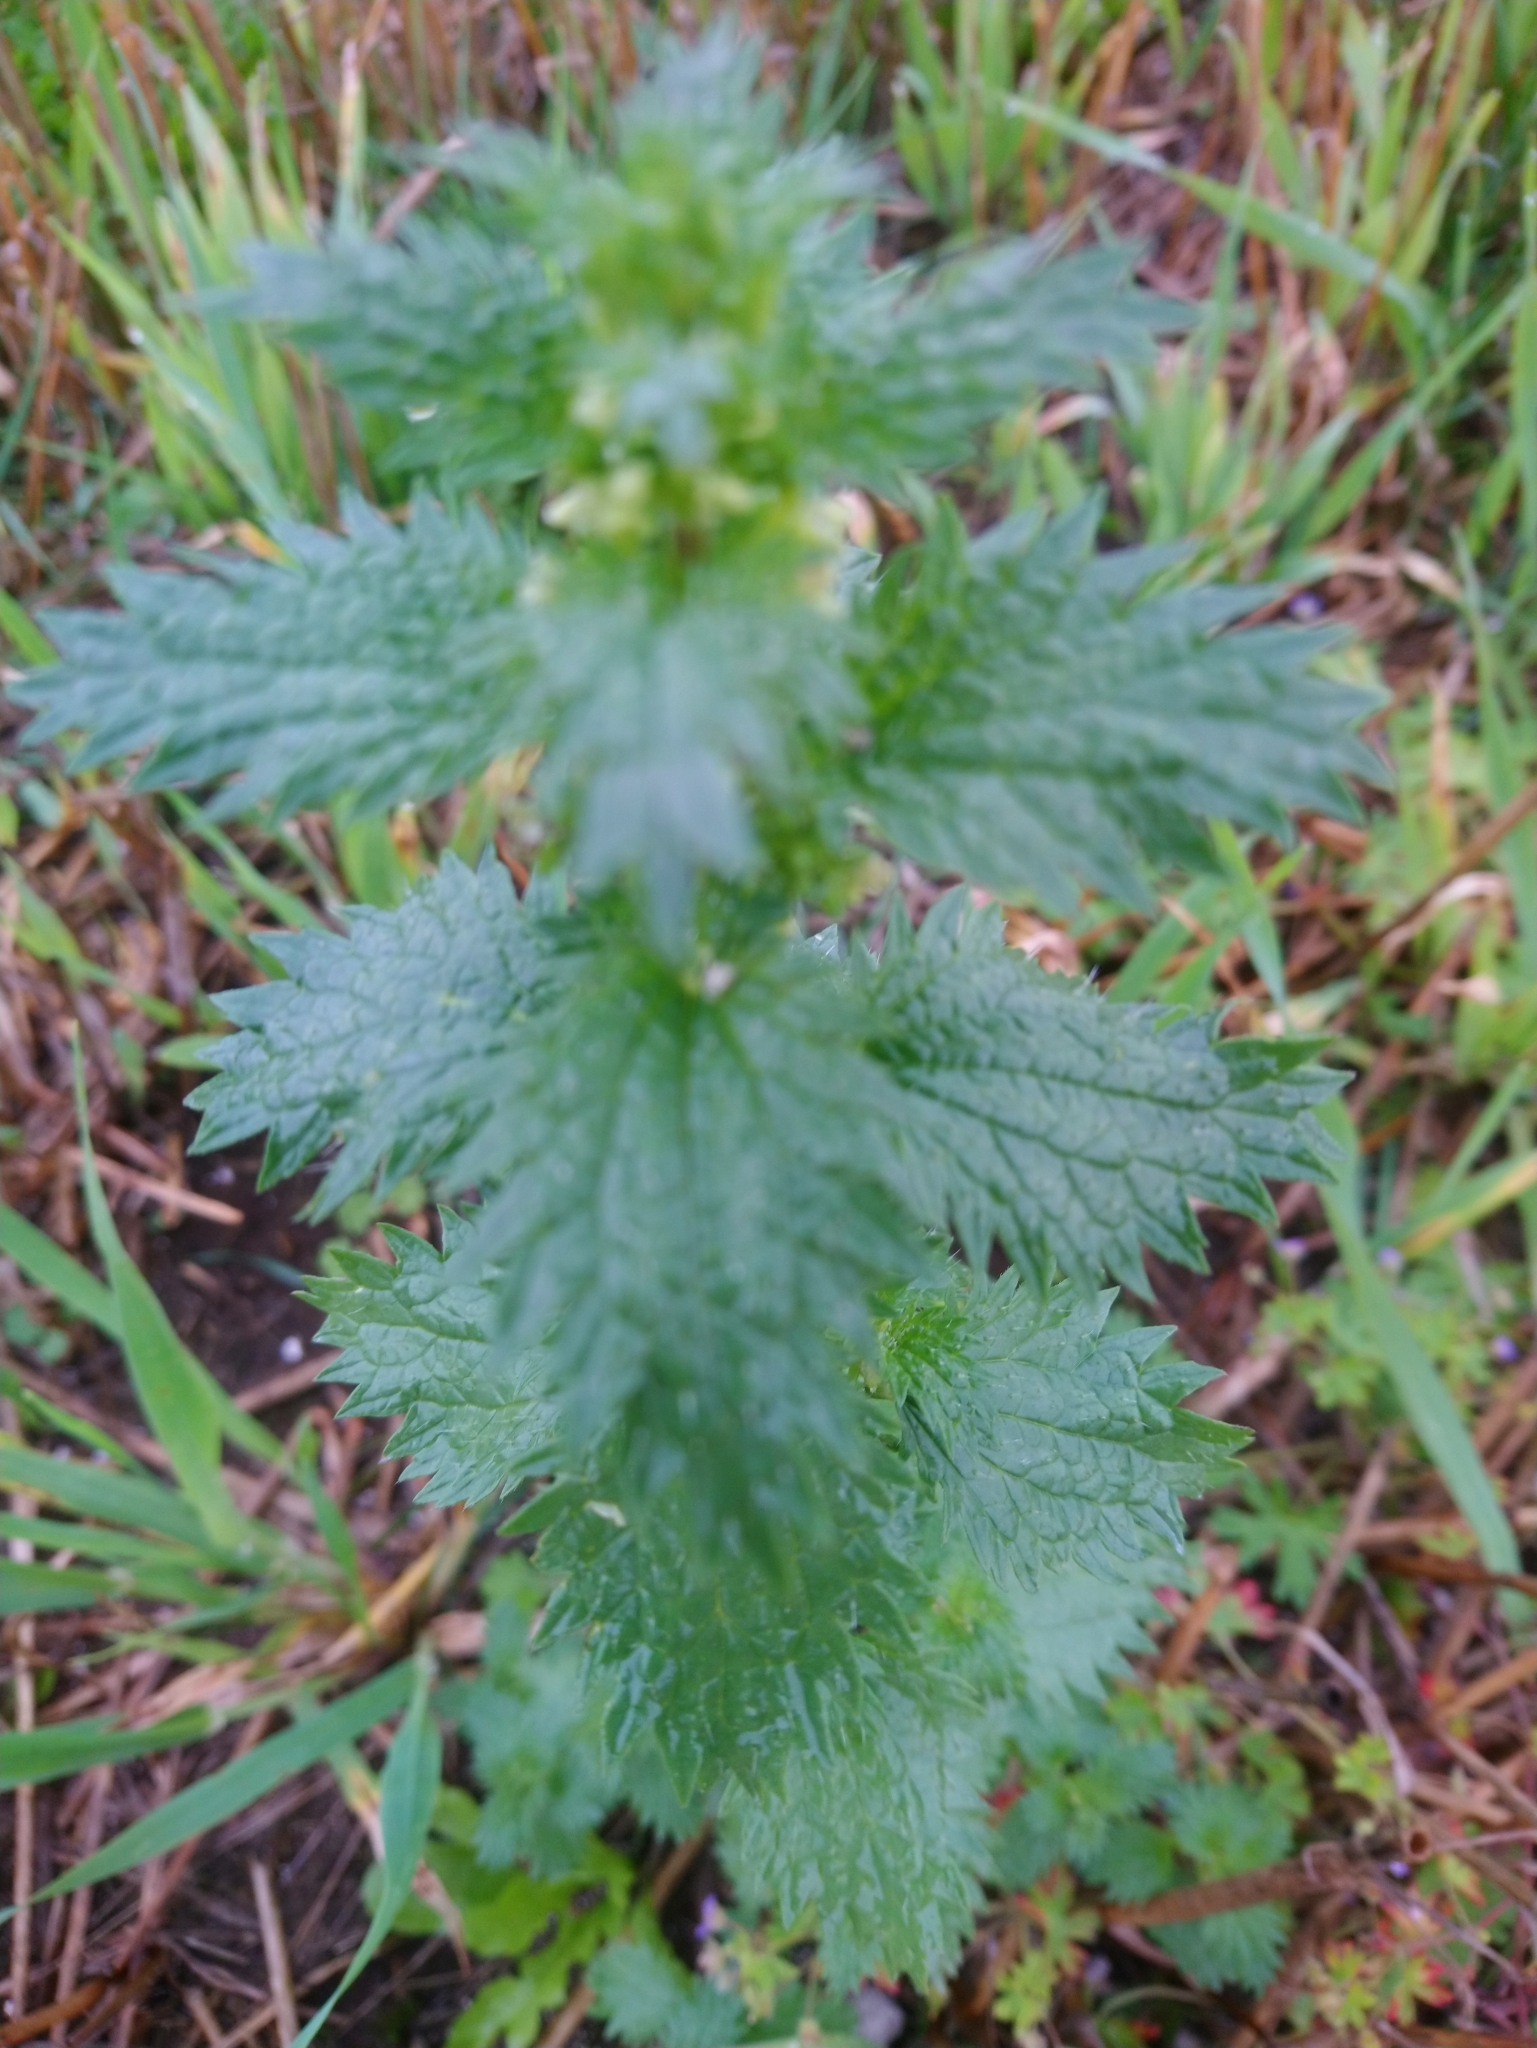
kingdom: Plantae
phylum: Tracheophyta
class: Magnoliopsida
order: Rosales
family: Urticaceae
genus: Urtica
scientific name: Urtica urens
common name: Dwarf nettle
